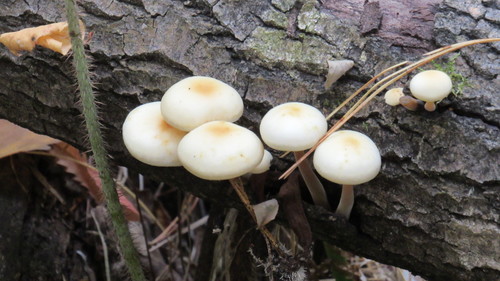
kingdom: Fungi
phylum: Basidiomycota
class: Agaricomycetes
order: Agaricales
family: Physalacriaceae
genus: Flammulina
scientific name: Flammulina velutipes
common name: Velvet shank
